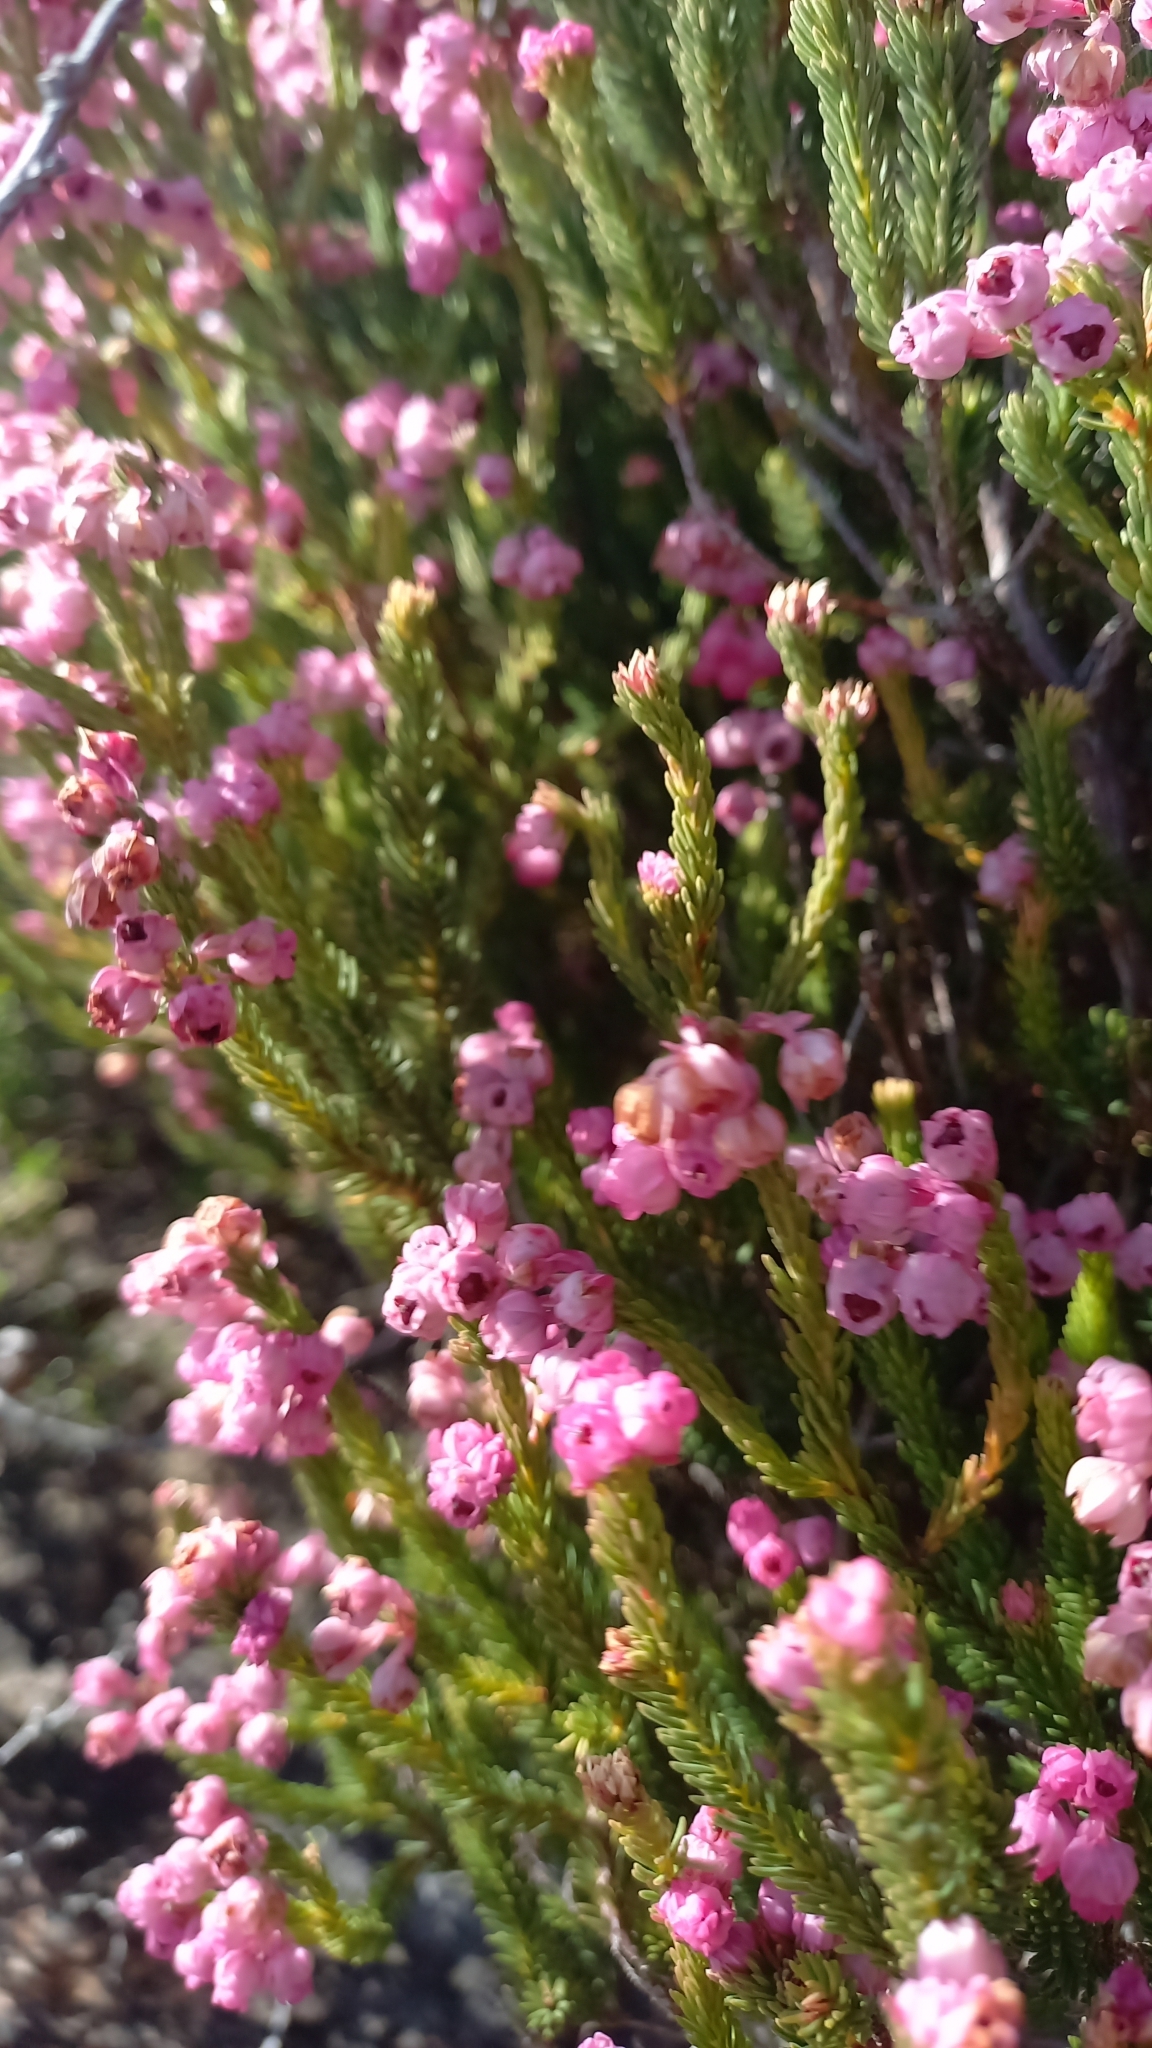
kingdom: Plantae
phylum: Tracheophyta
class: Magnoliopsida
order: Ericales
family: Ericaceae
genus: Erica
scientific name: Erica baccans
